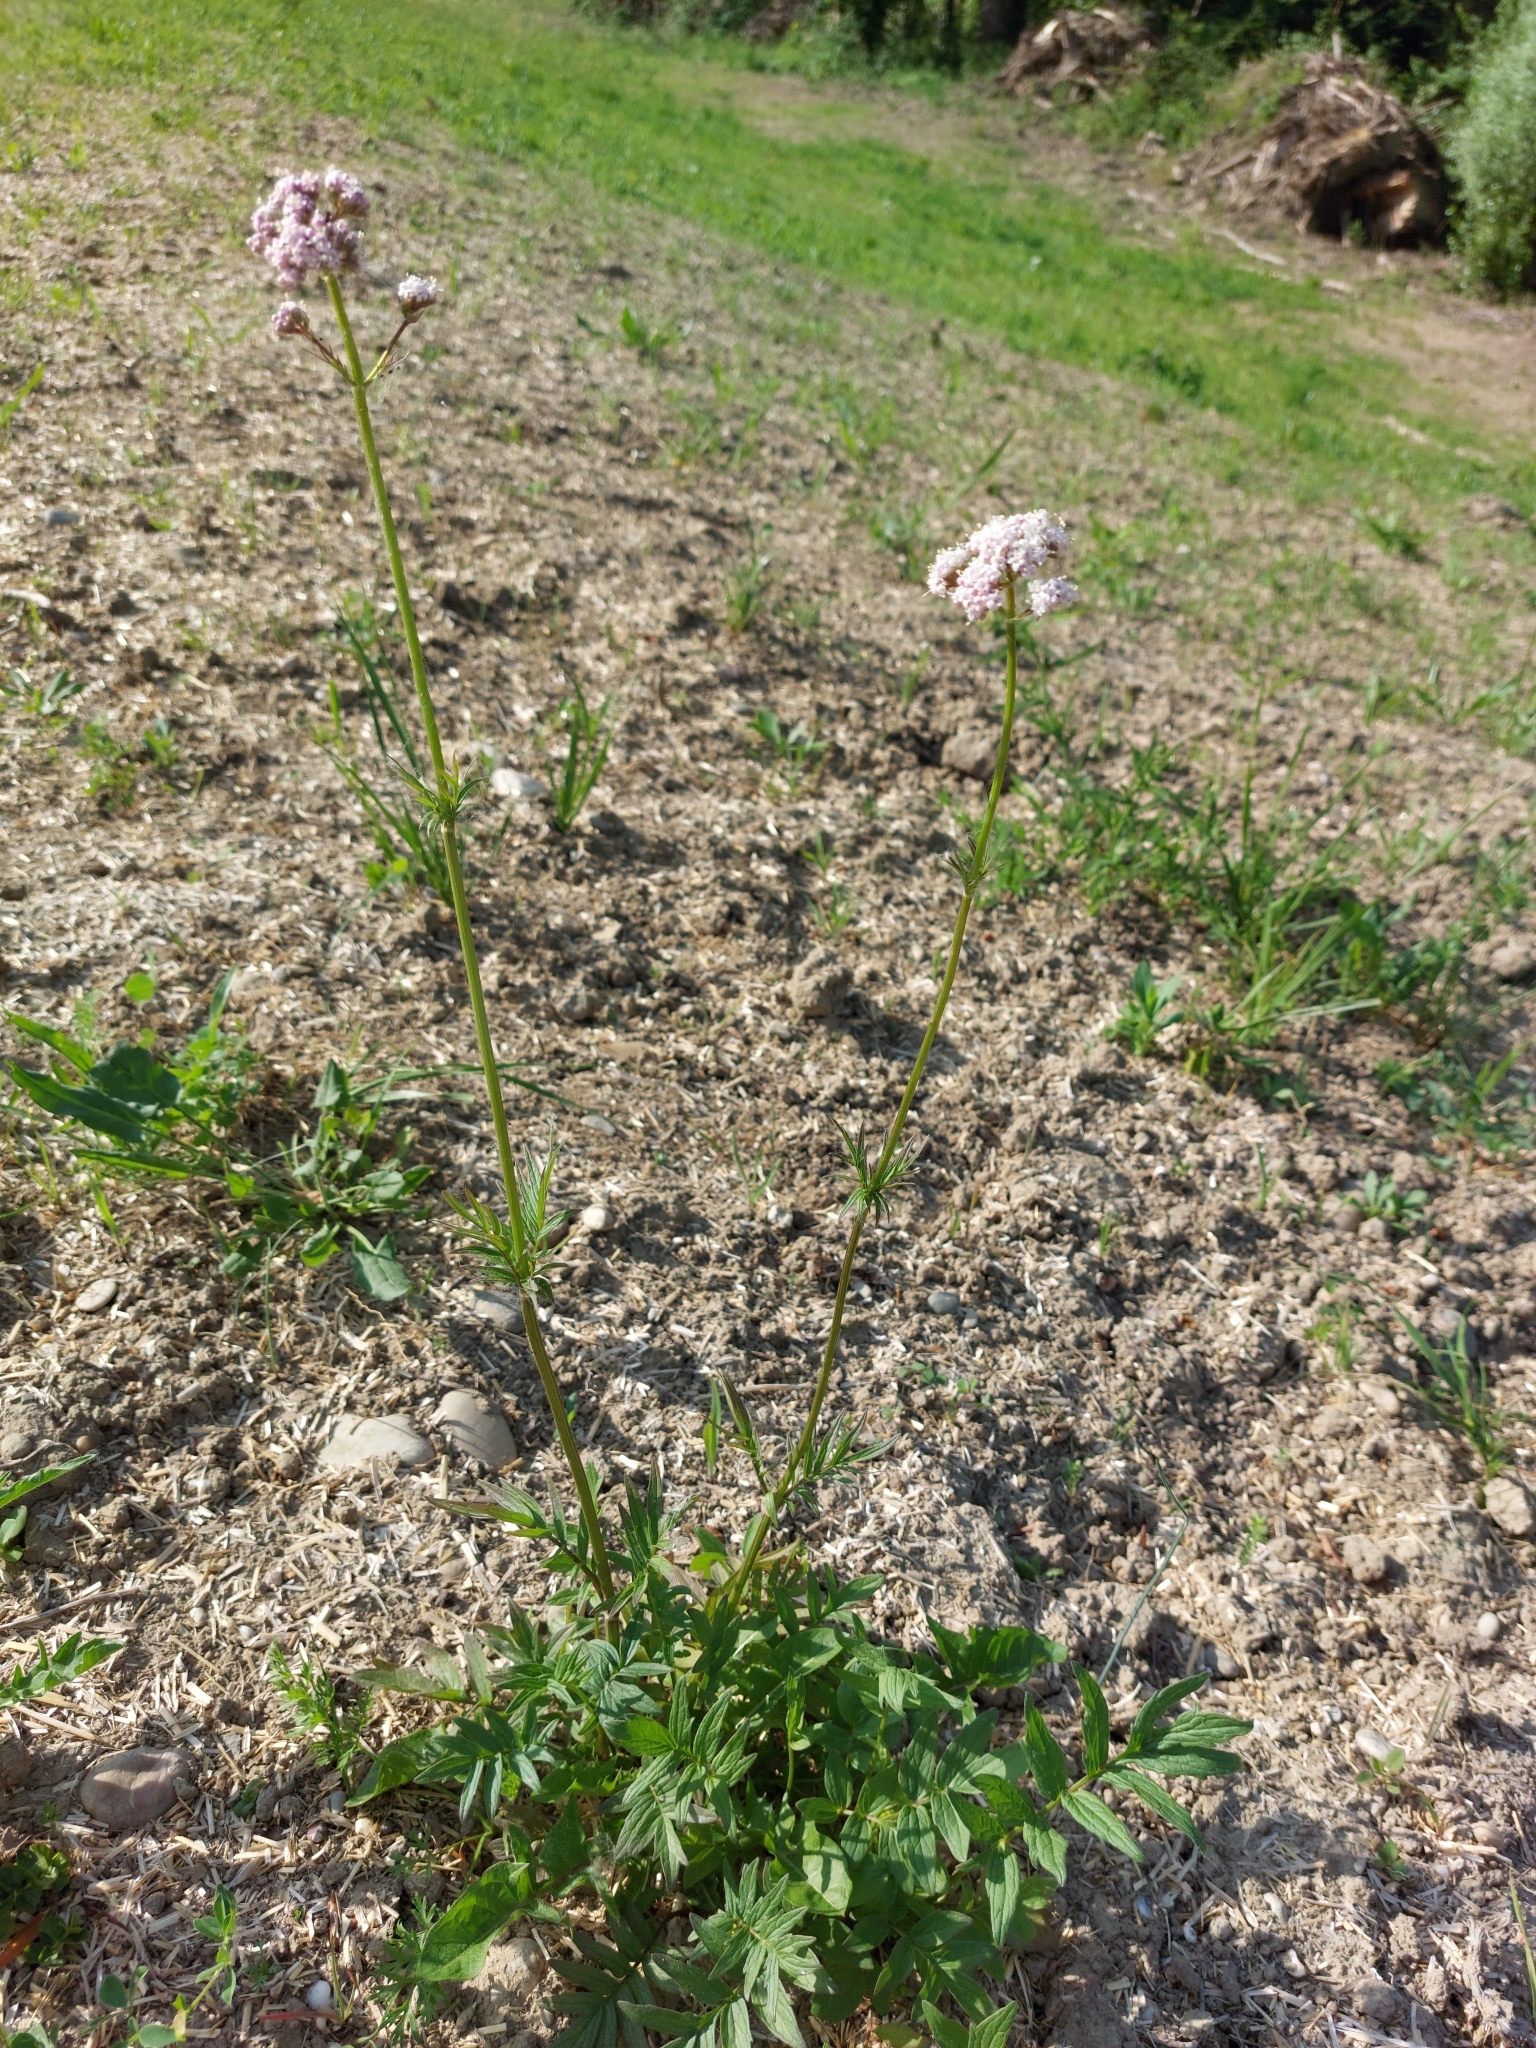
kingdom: Plantae
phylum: Tracheophyta
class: Magnoliopsida
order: Dipsacales
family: Caprifoliaceae
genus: Valeriana
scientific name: Valeriana officinalis
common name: Common valerian
